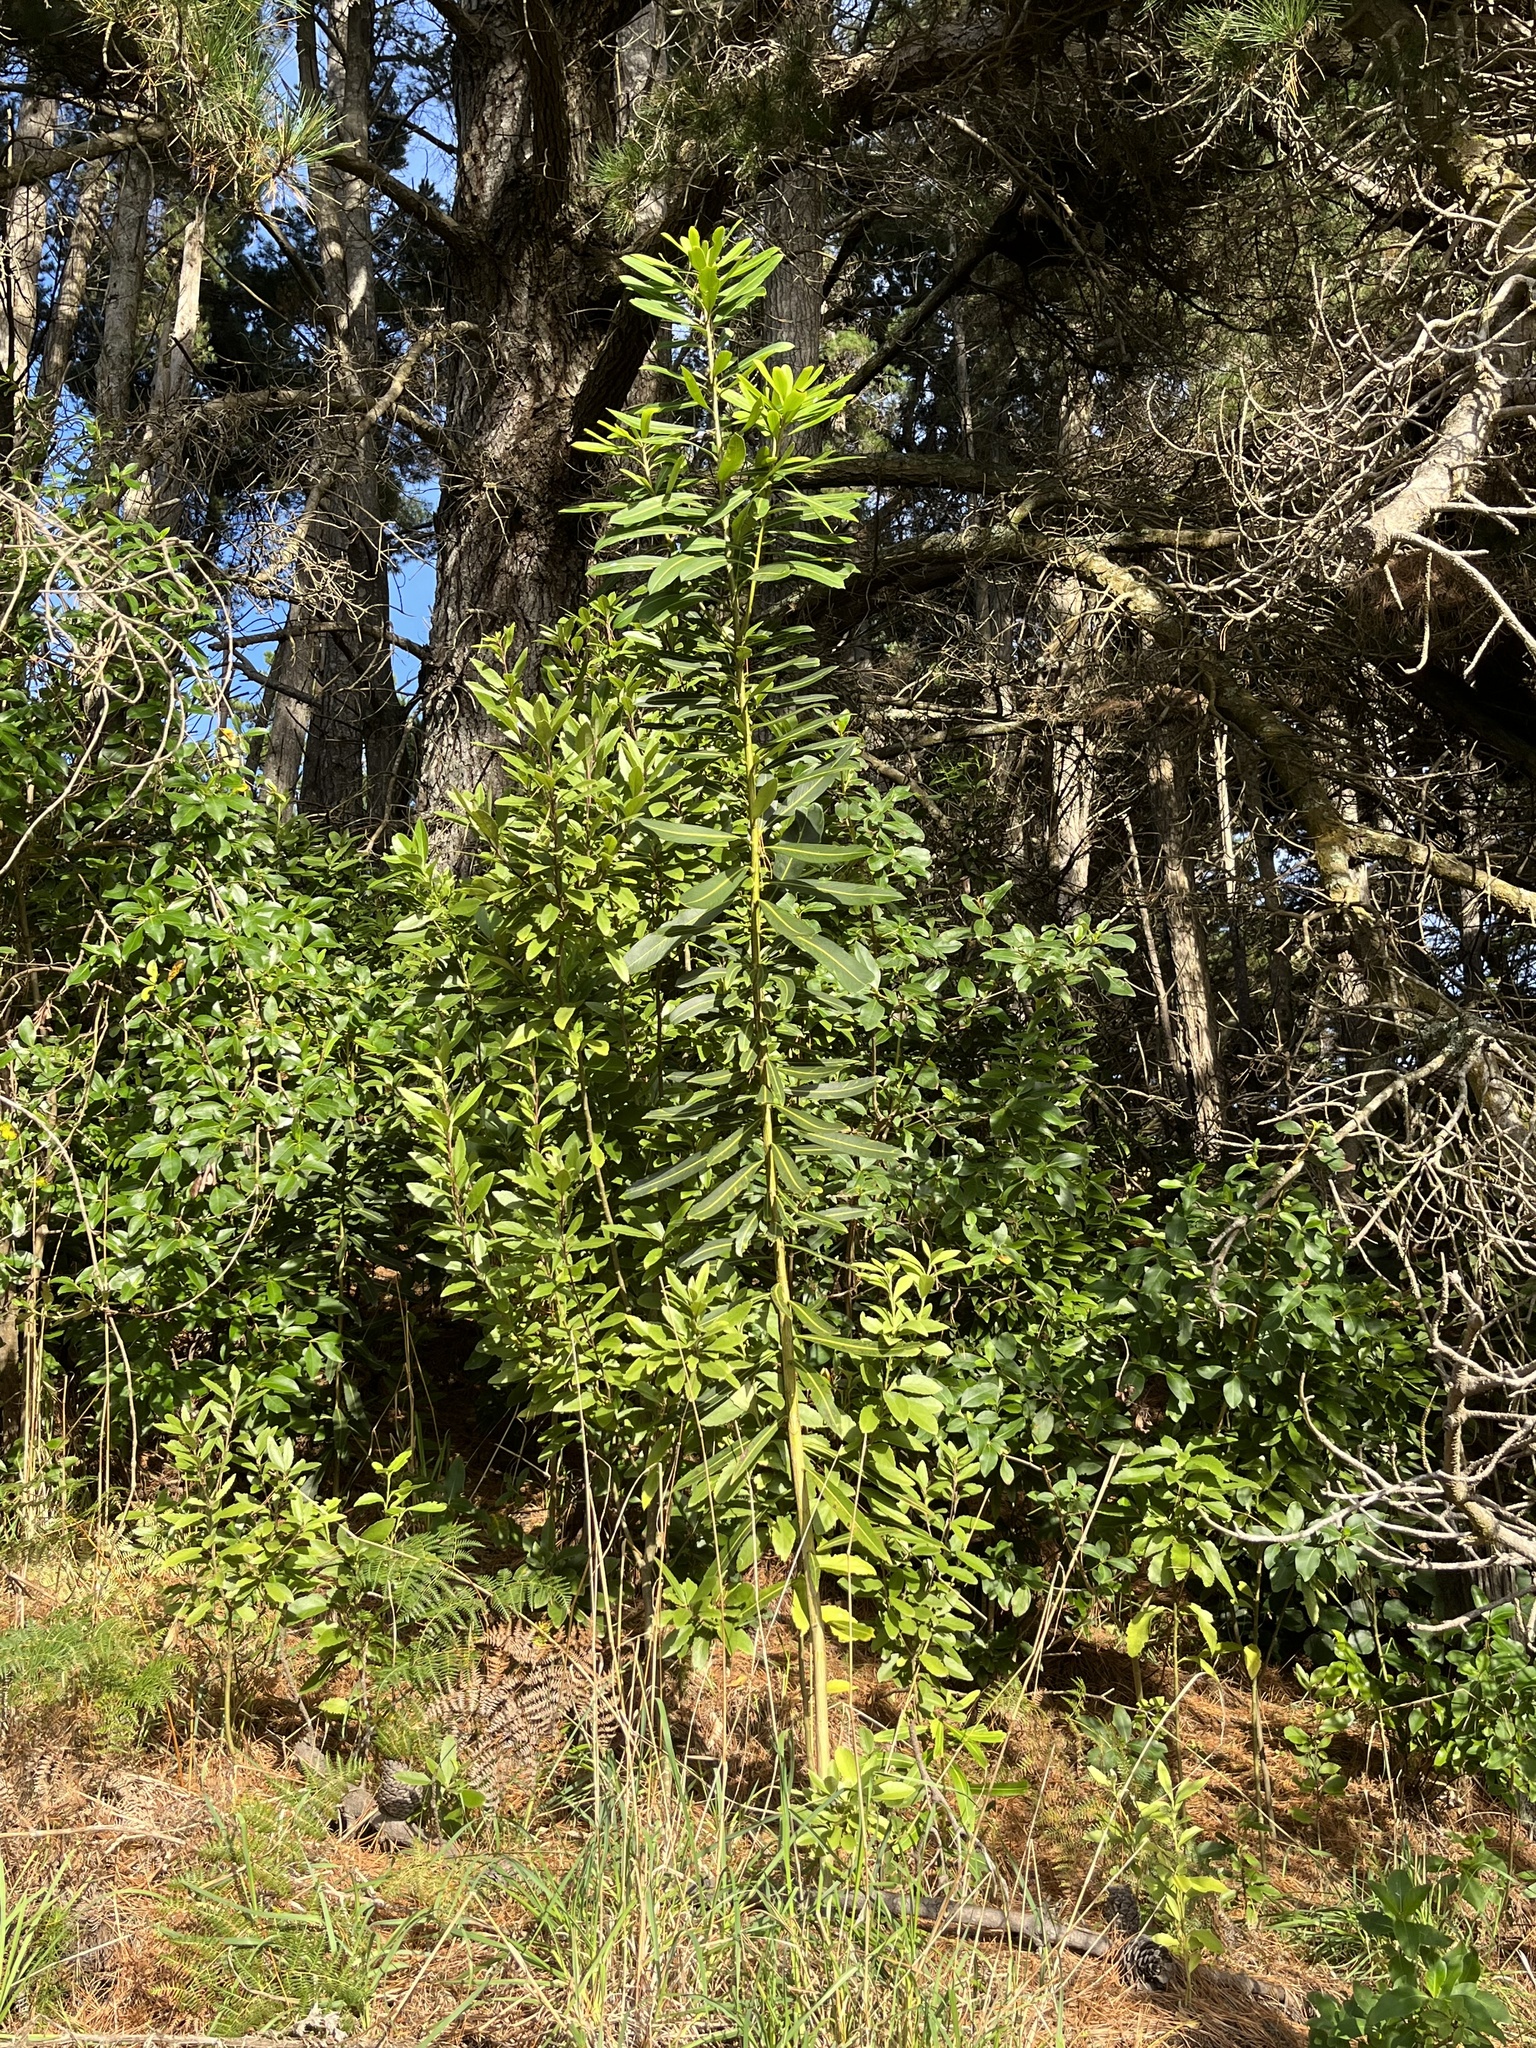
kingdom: Plantae
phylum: Tracheophyta
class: Magnoliopsida
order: Apiales
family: Araliaceae
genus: Pseudopanax
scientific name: Pseudopanax chathamicus
